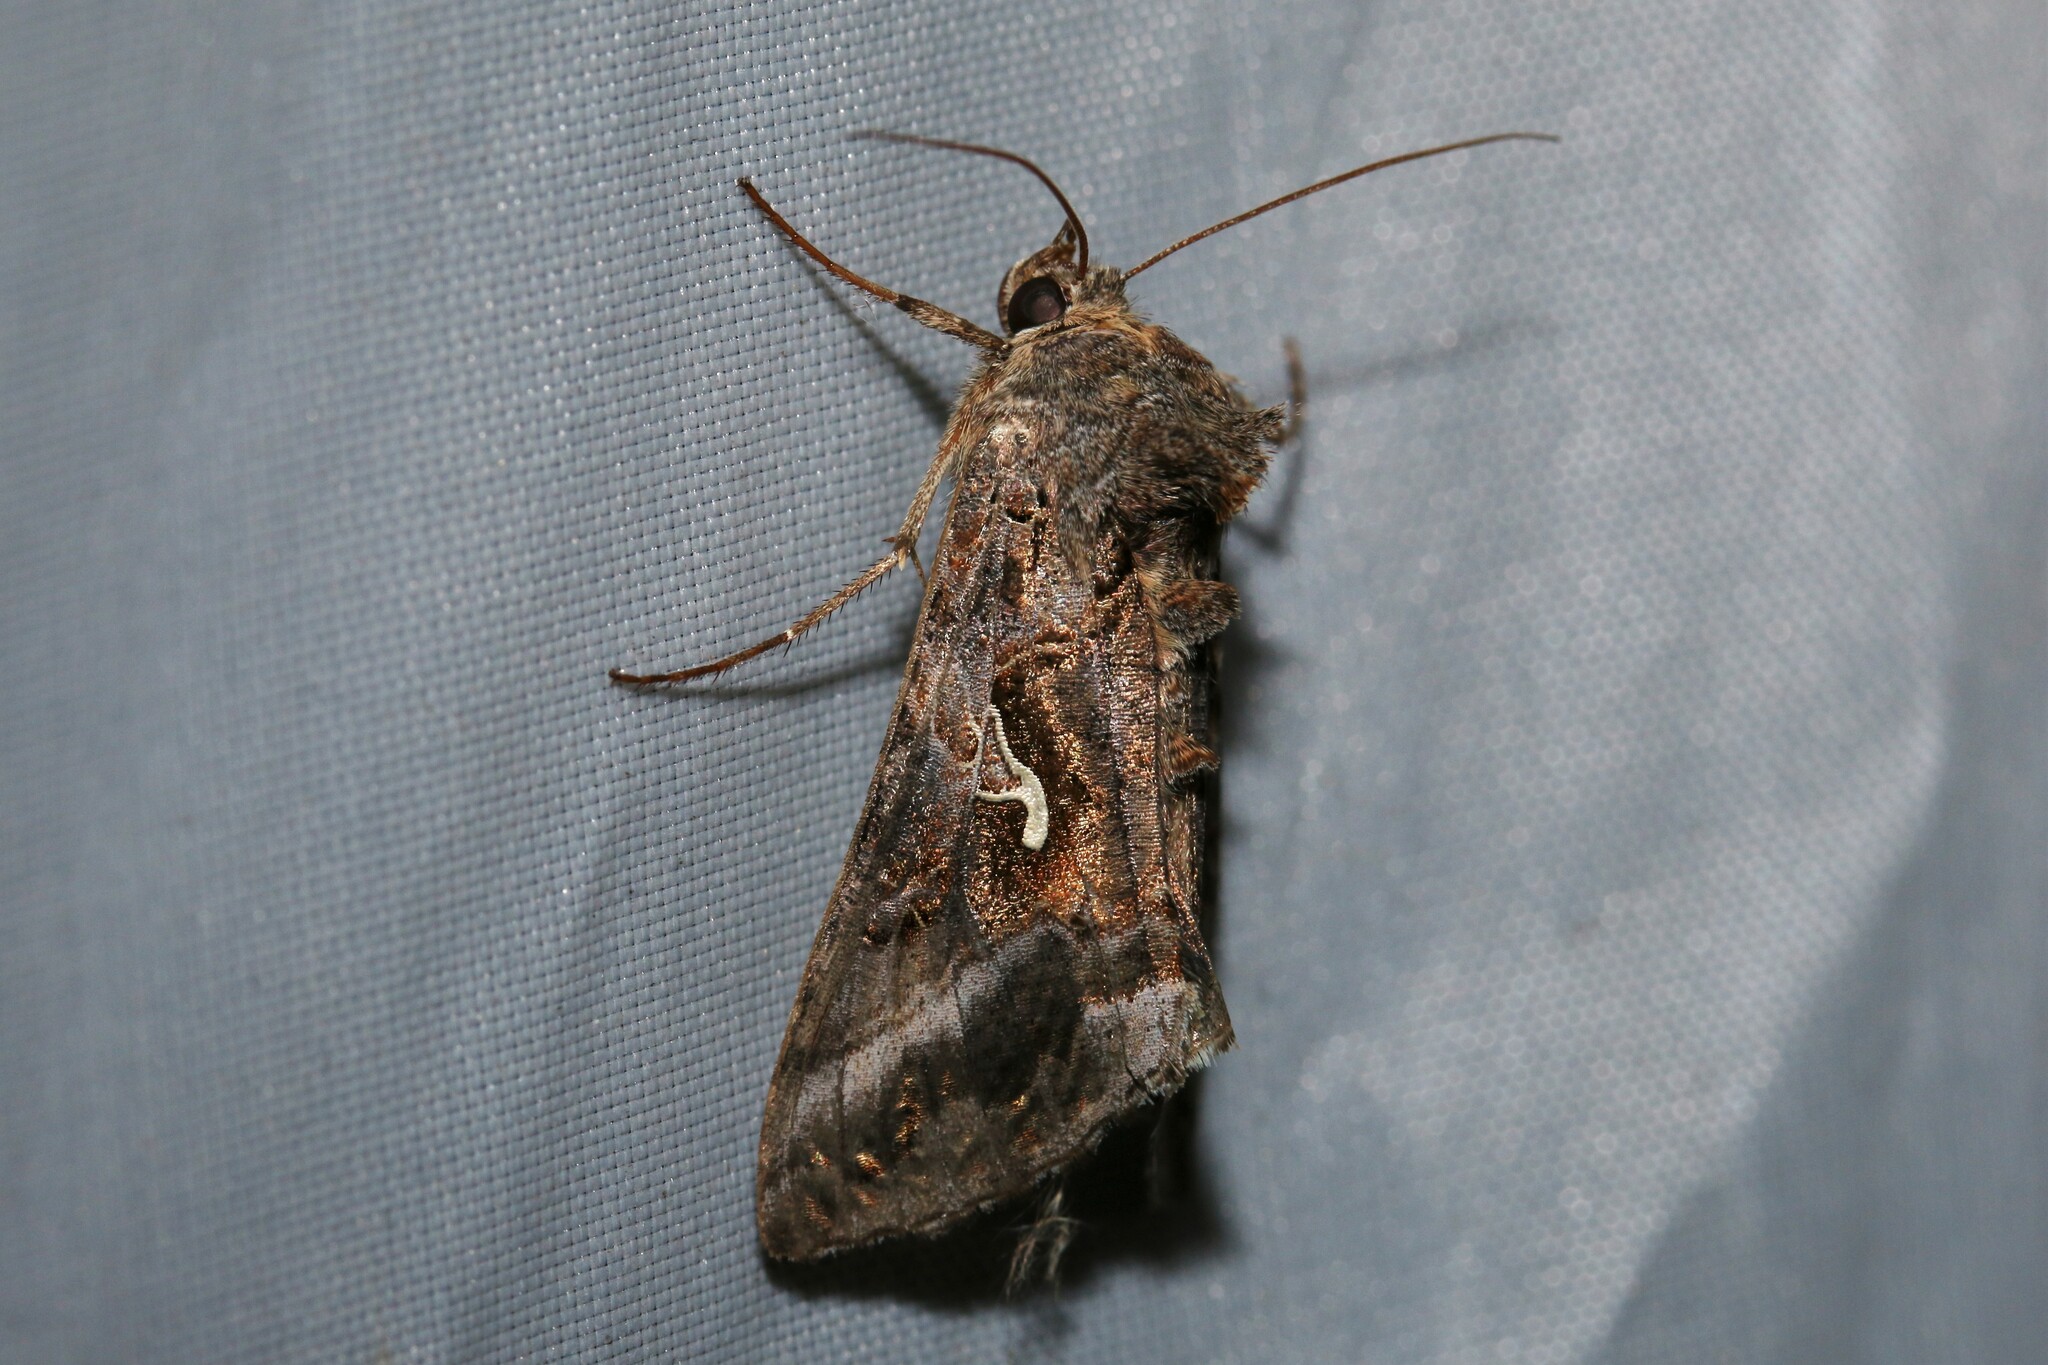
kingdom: Animalia
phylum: Arthropoda
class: Insecta
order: Lepidoptera
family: Noctuidae
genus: Autographa
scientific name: Autographa gamma
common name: Silver y
